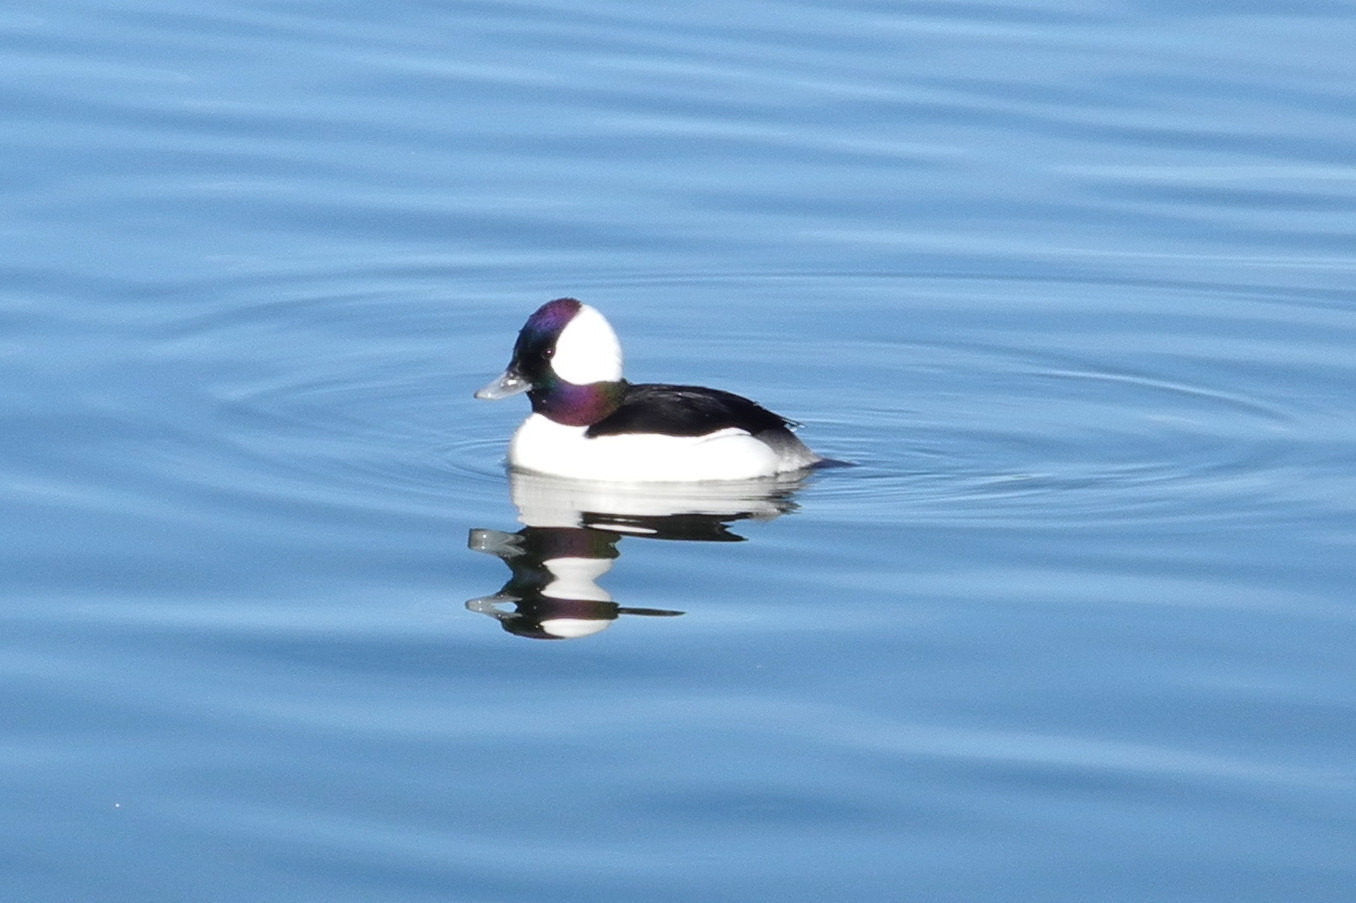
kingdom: Animalia
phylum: Chordata
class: Aves
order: Anseriformes
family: Anatidae
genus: Bucephala
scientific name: Bucephala albeola
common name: Bufflehead
